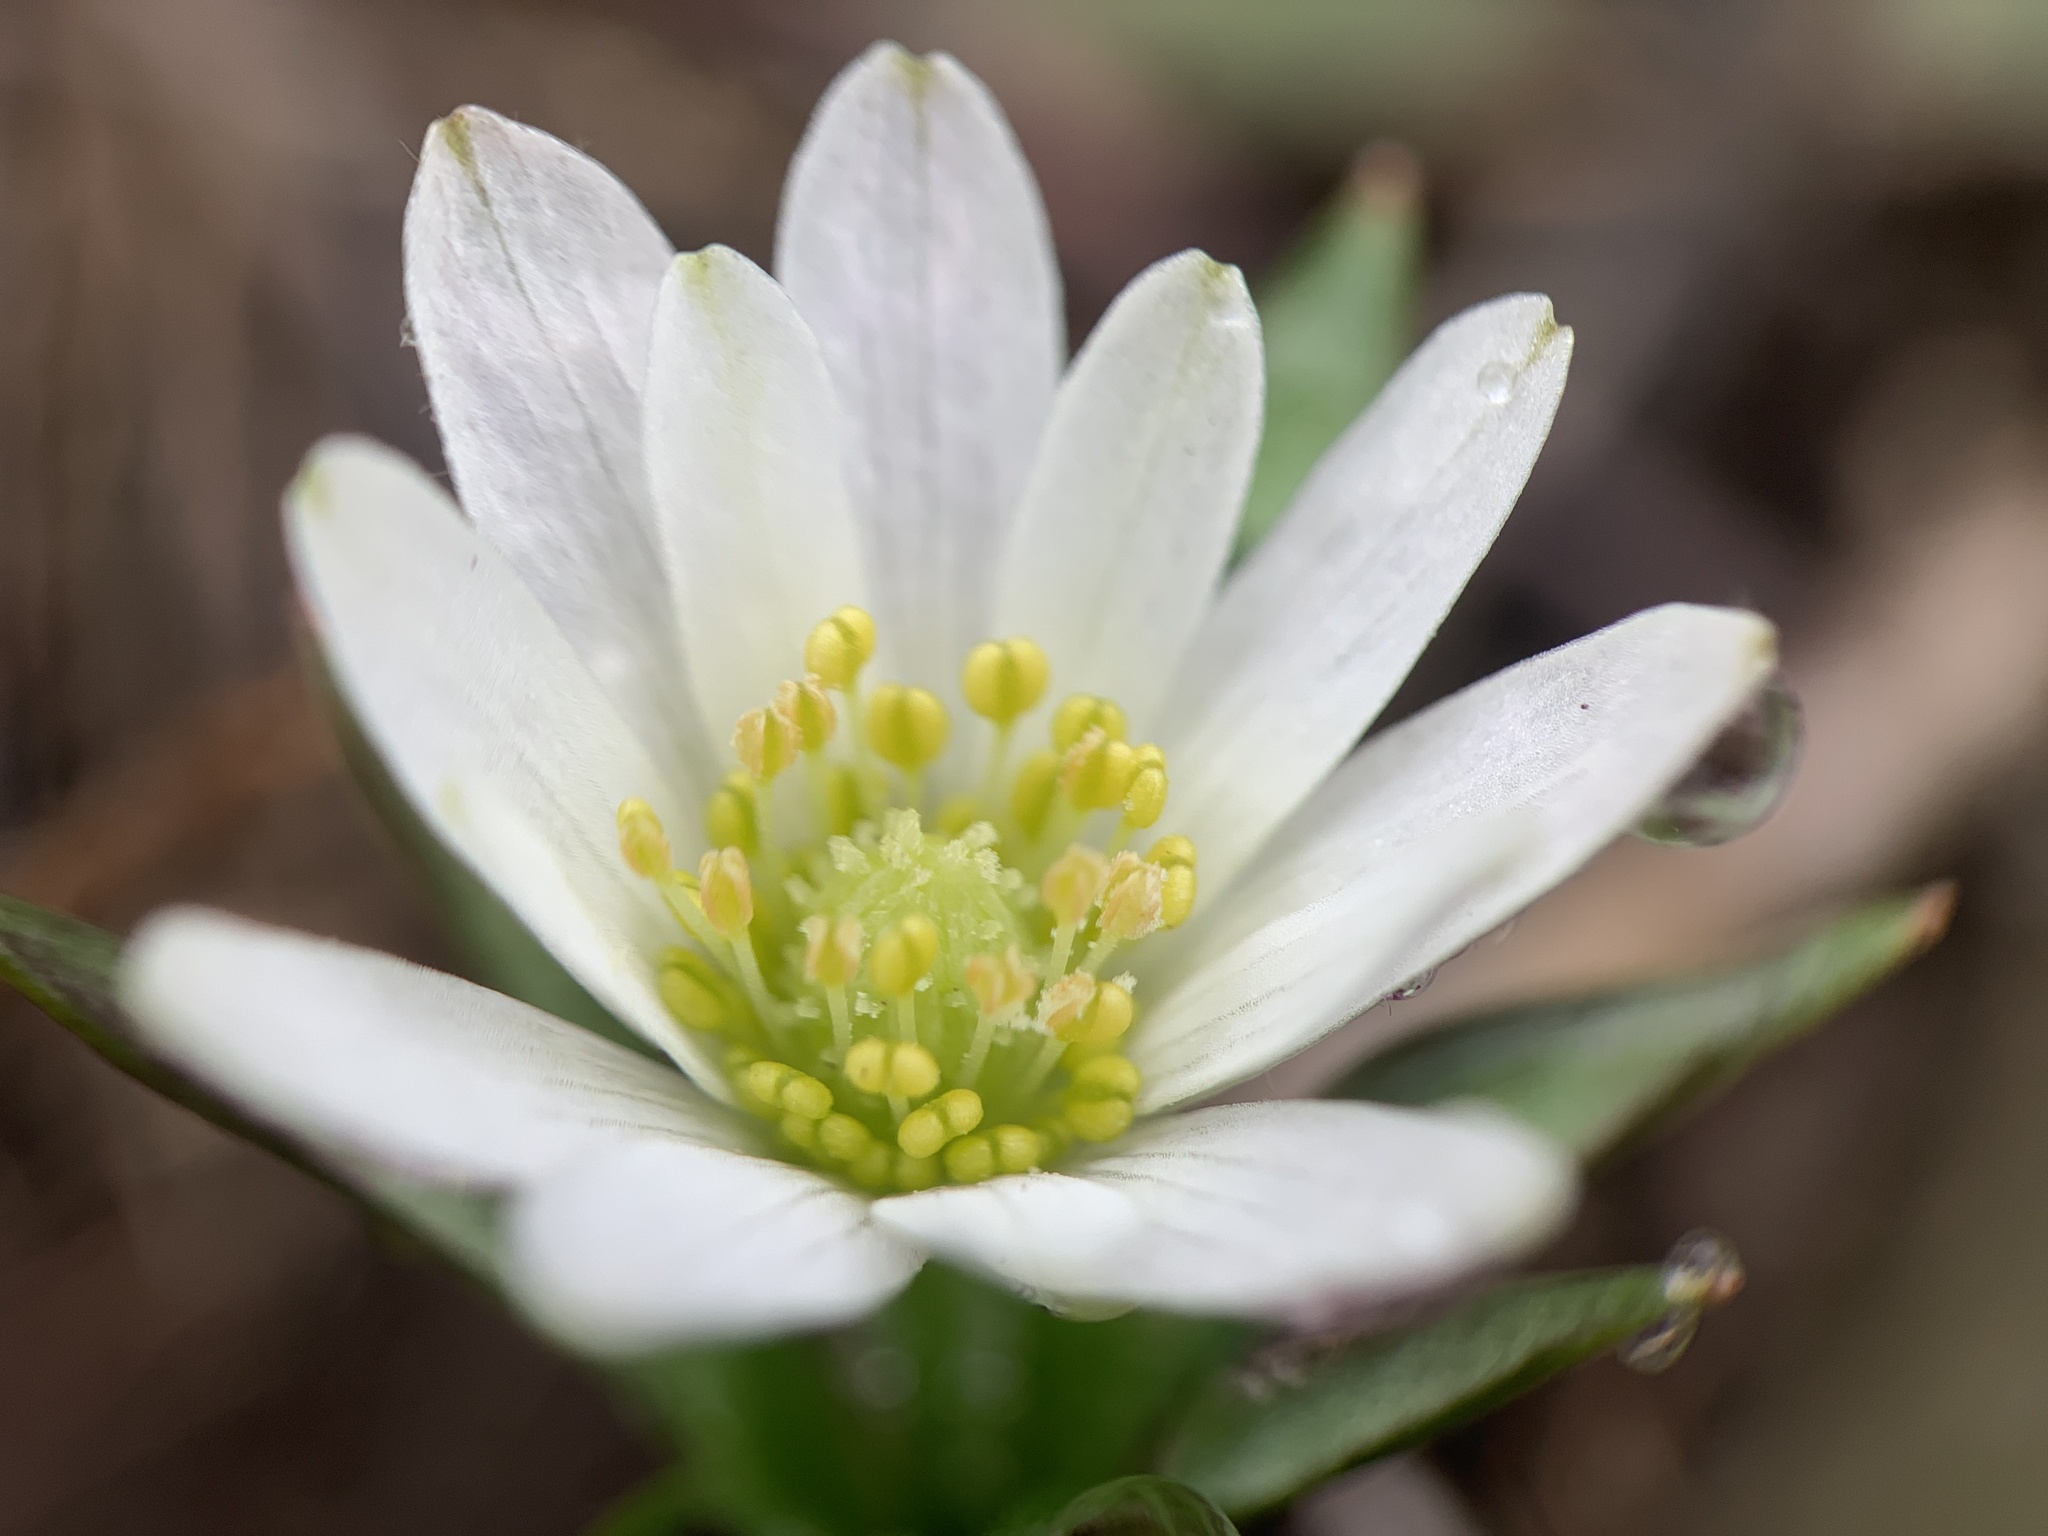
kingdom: Plantae
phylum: Tracheophyta
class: Magnoliopsida
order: Ranunculales
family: Ranunculaceae
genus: Anemone
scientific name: Anemone berlandieri
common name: Ten-petal anemone
